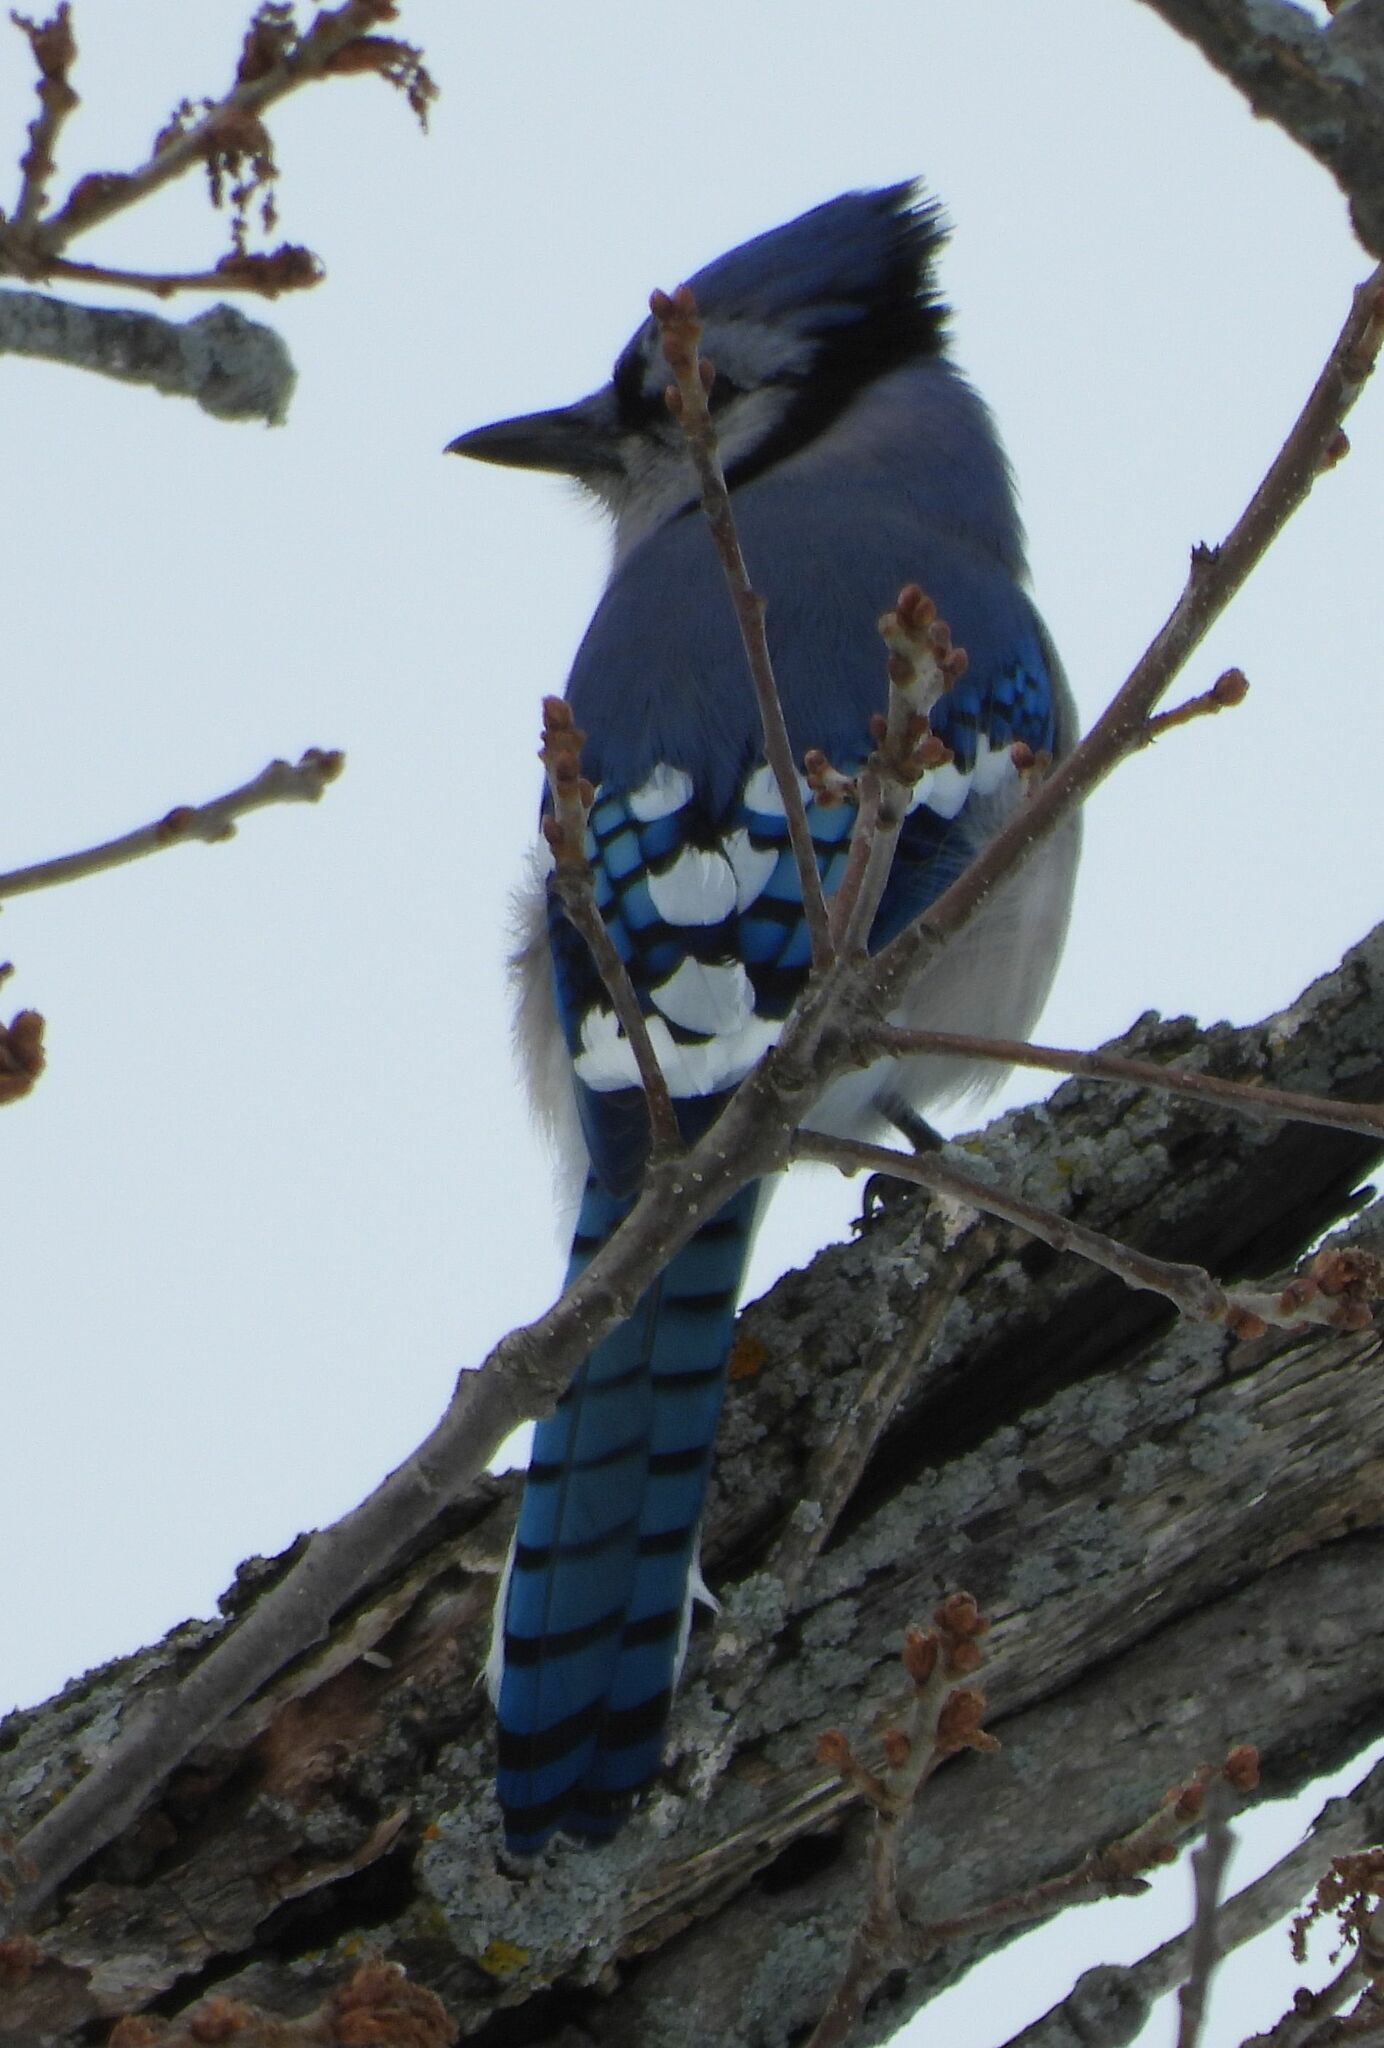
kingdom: Animalia
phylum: Chordata
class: Aves
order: Passeriformes
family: Corvidae
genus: Cyanocitta
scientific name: Cyanocitta cristata
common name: Blue jay
